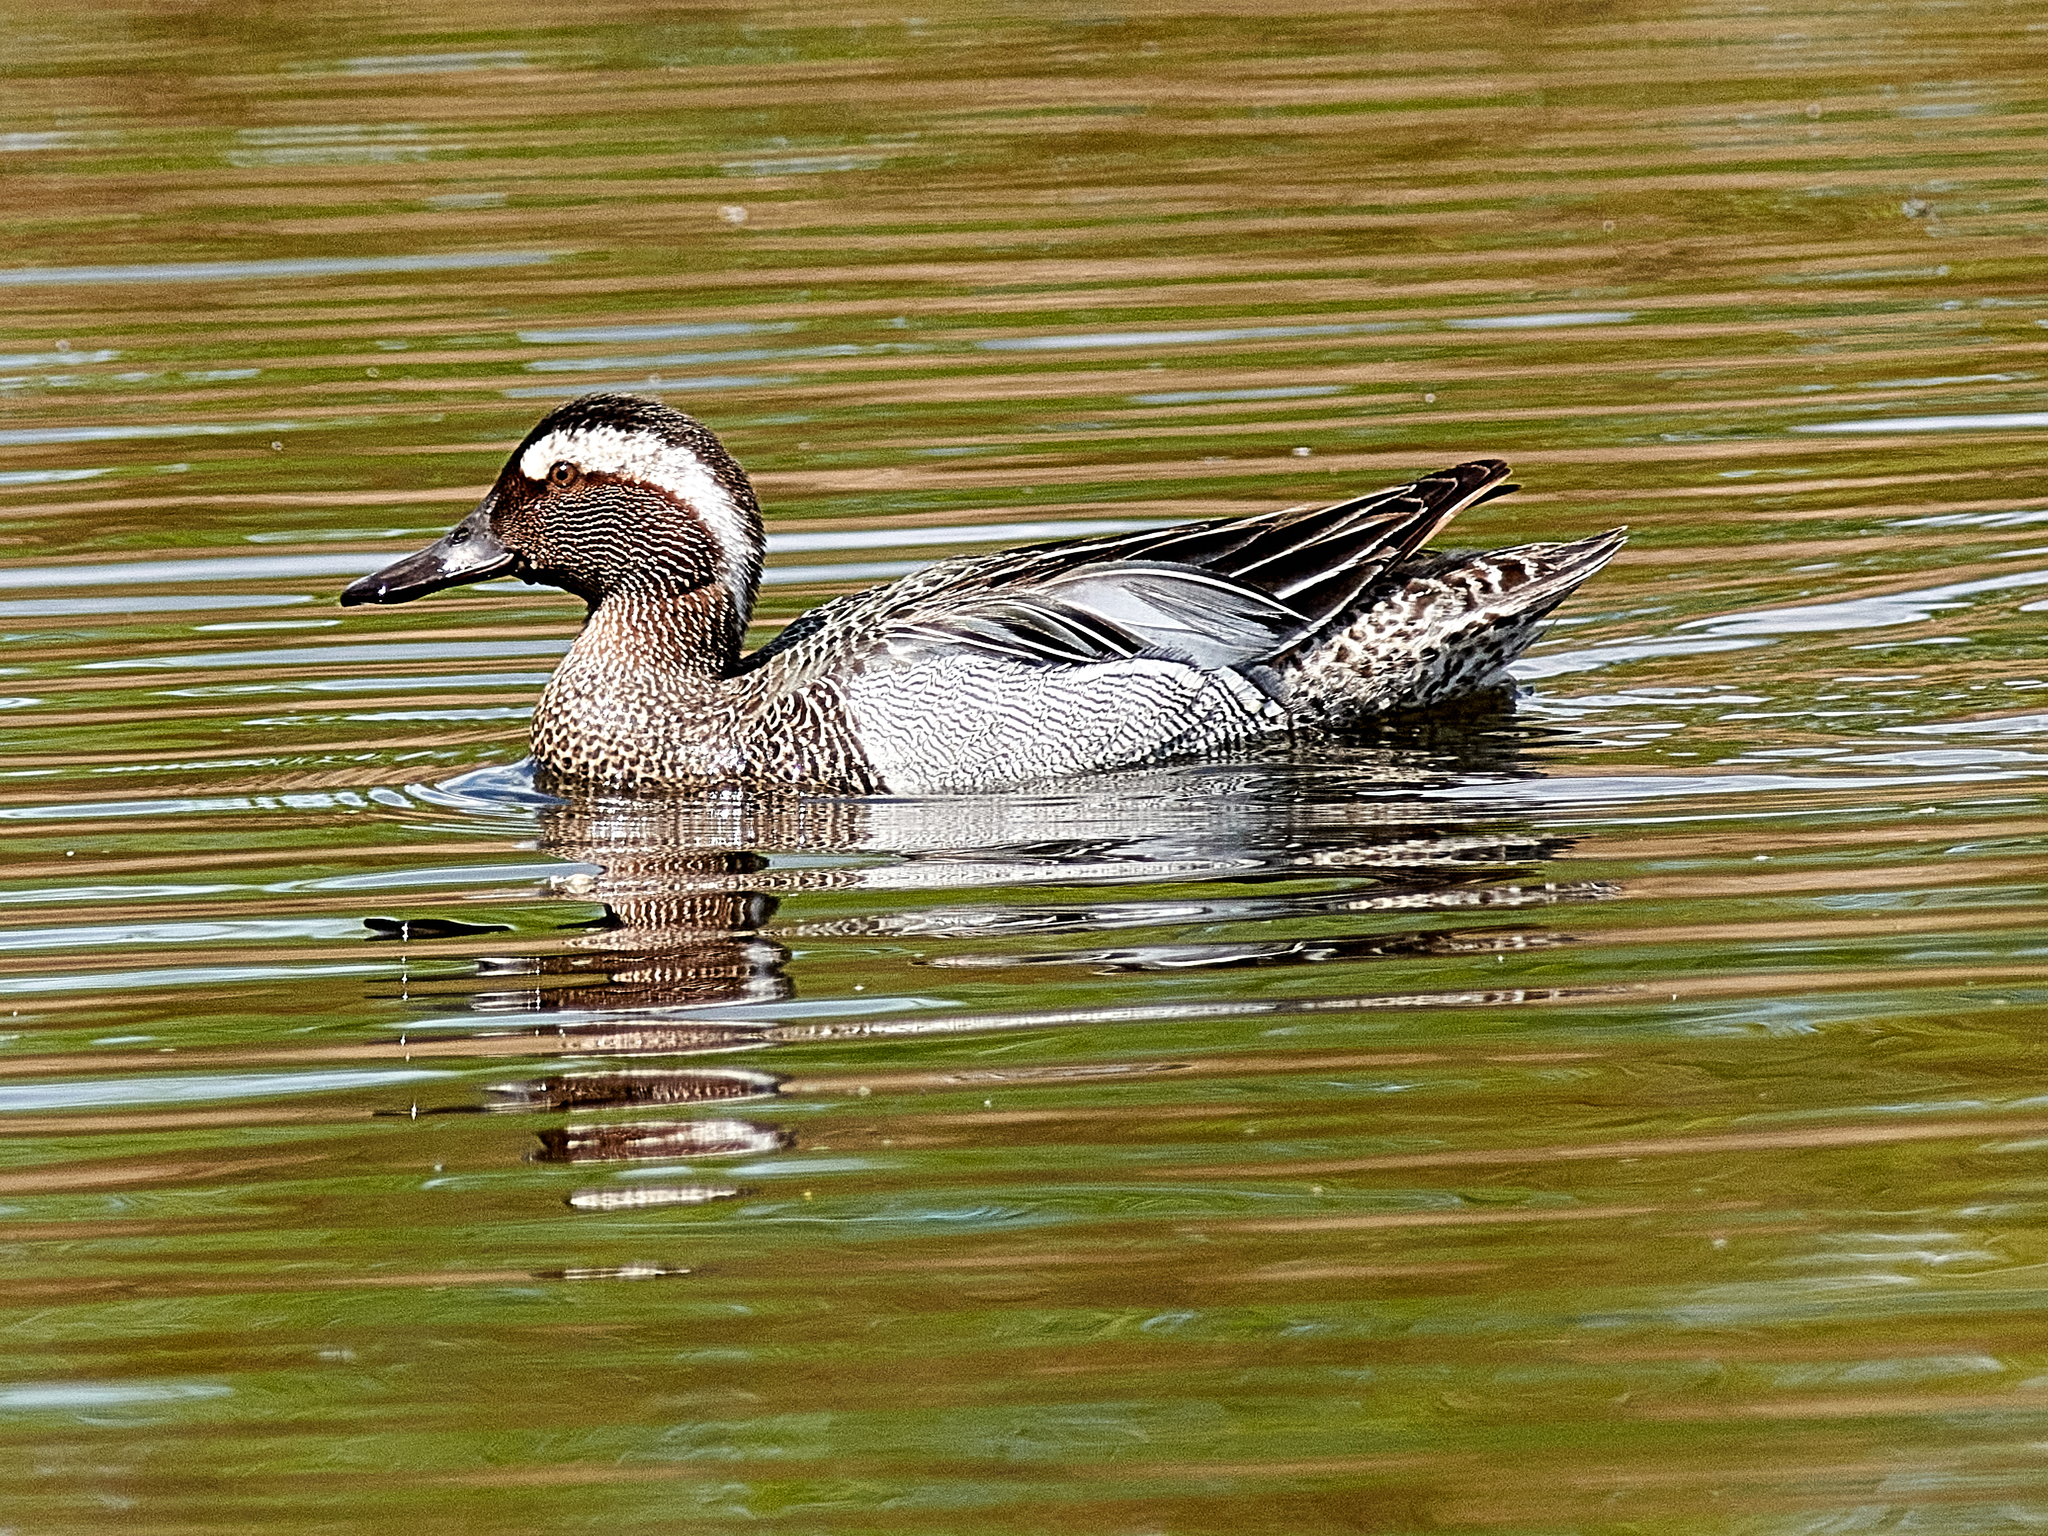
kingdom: Animalia
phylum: Chordata
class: Aves
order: Anseriformes
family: Anatidae
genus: Spatula
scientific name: Spatula querquedula
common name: Garganey
